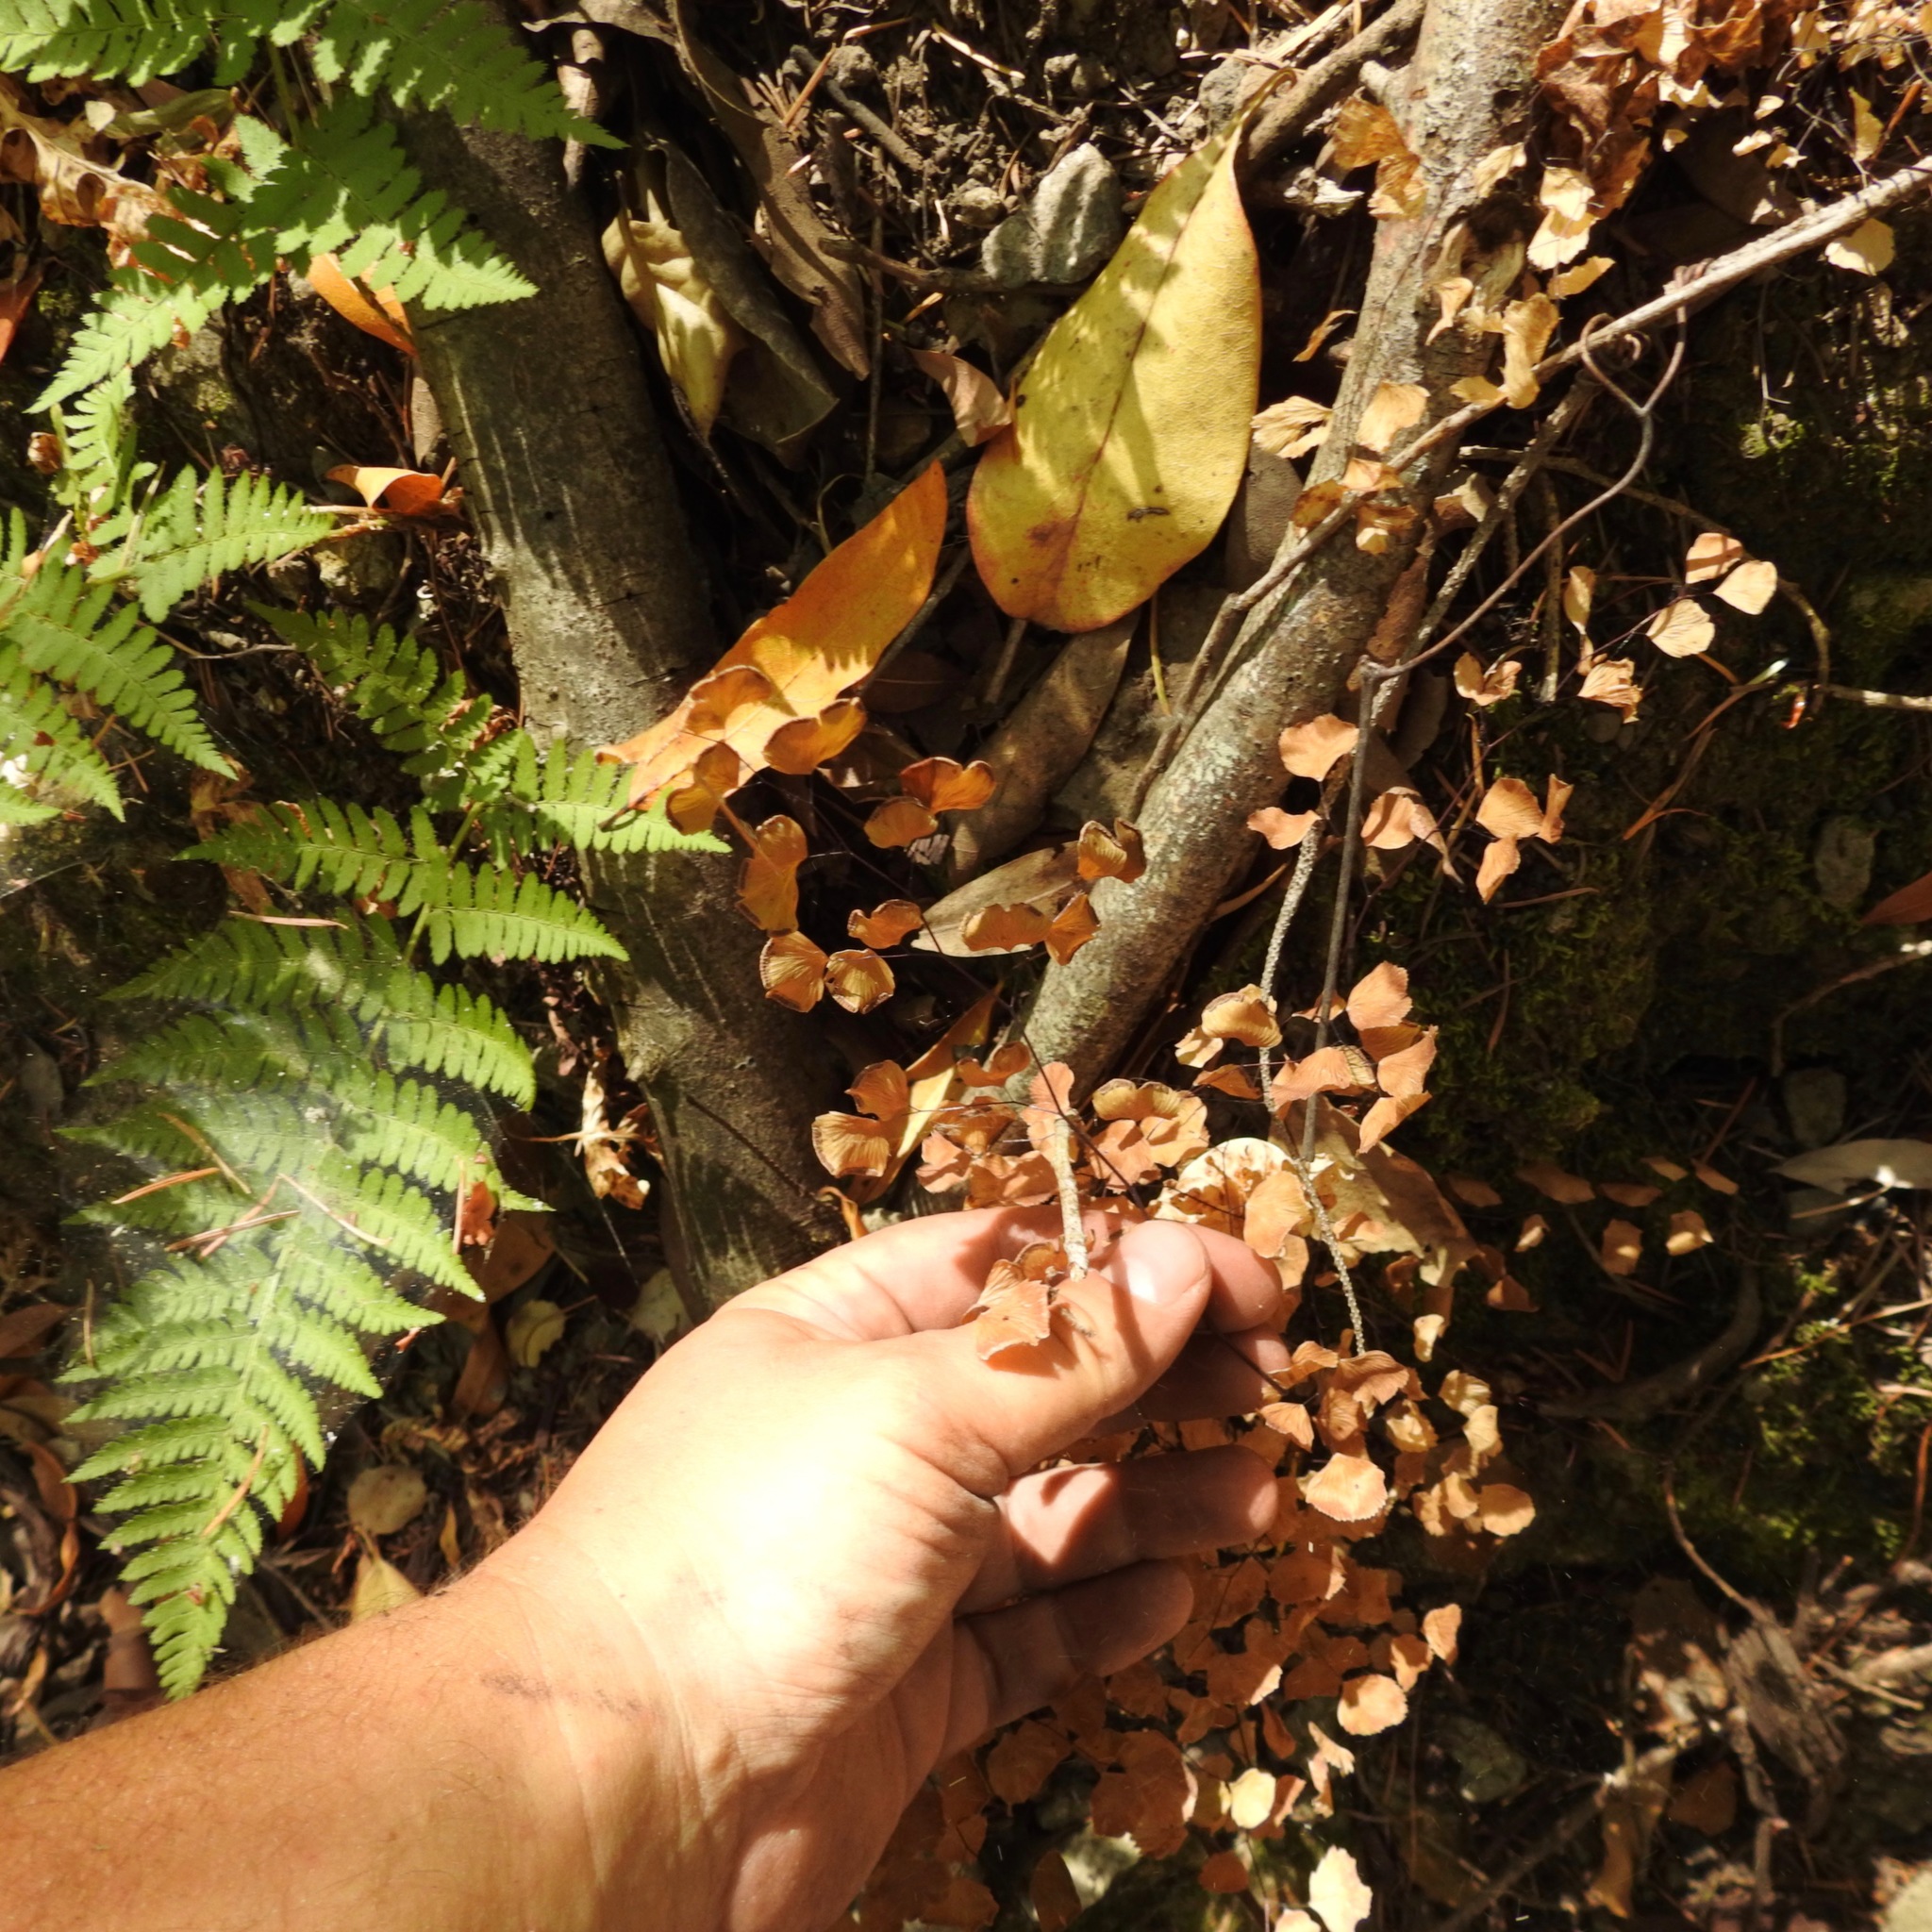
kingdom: Plantae
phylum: Tracheophyta
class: Polypodiopsida
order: Polypodiales
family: Pteridaceae
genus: Adiantum
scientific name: Adiantum jordanii
